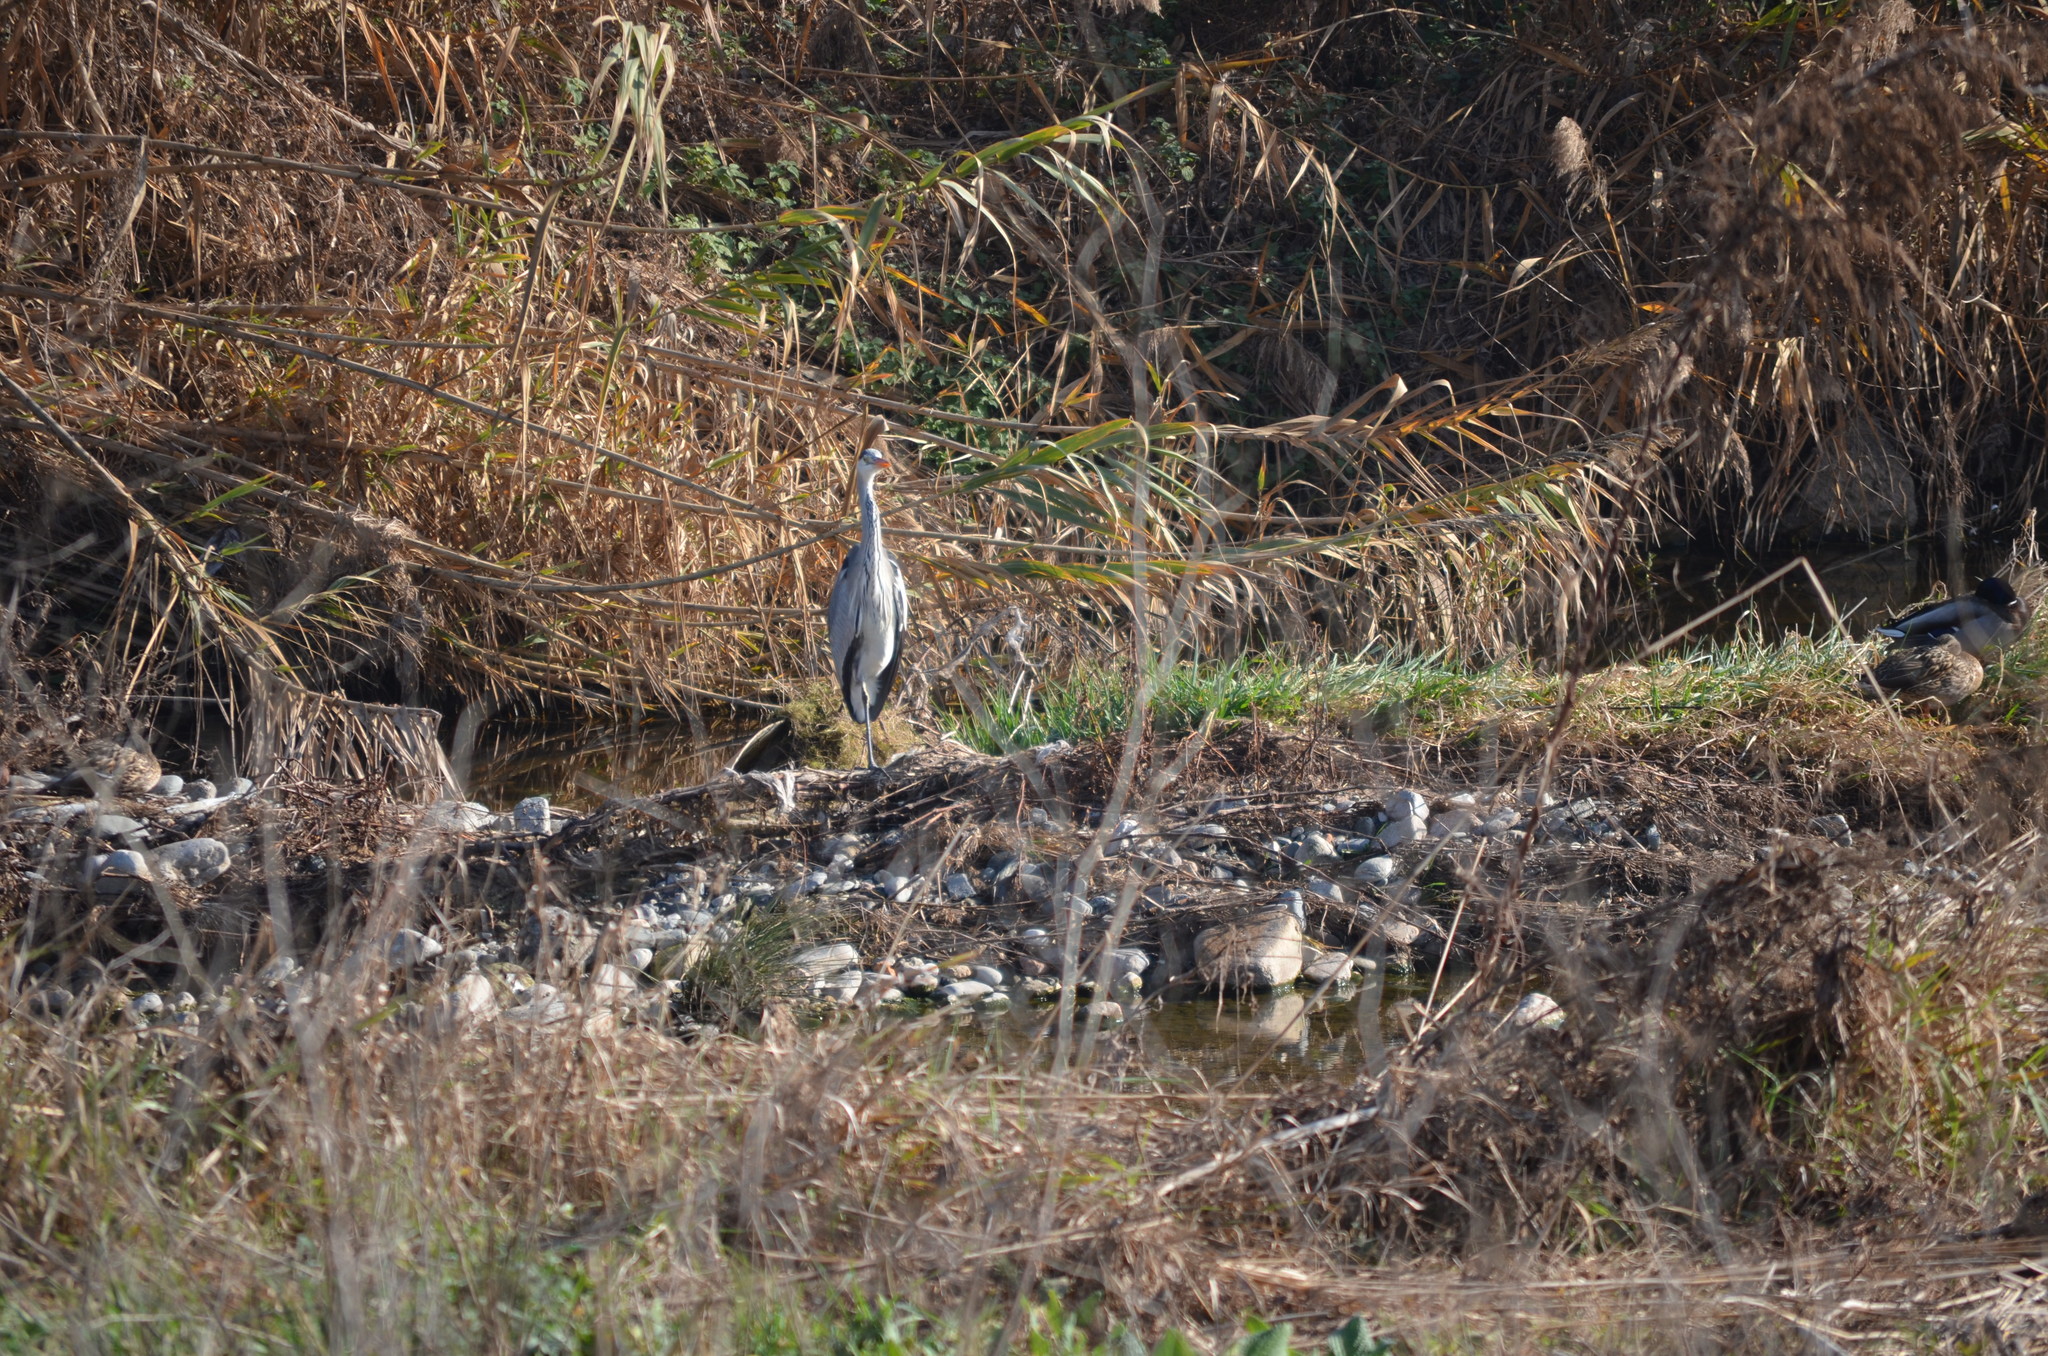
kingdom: Animalia
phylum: Chordata
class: Aves
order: Pelecaniformes
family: Ardeidae
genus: Ardea
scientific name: Ardea cinerea
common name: Grey heron
